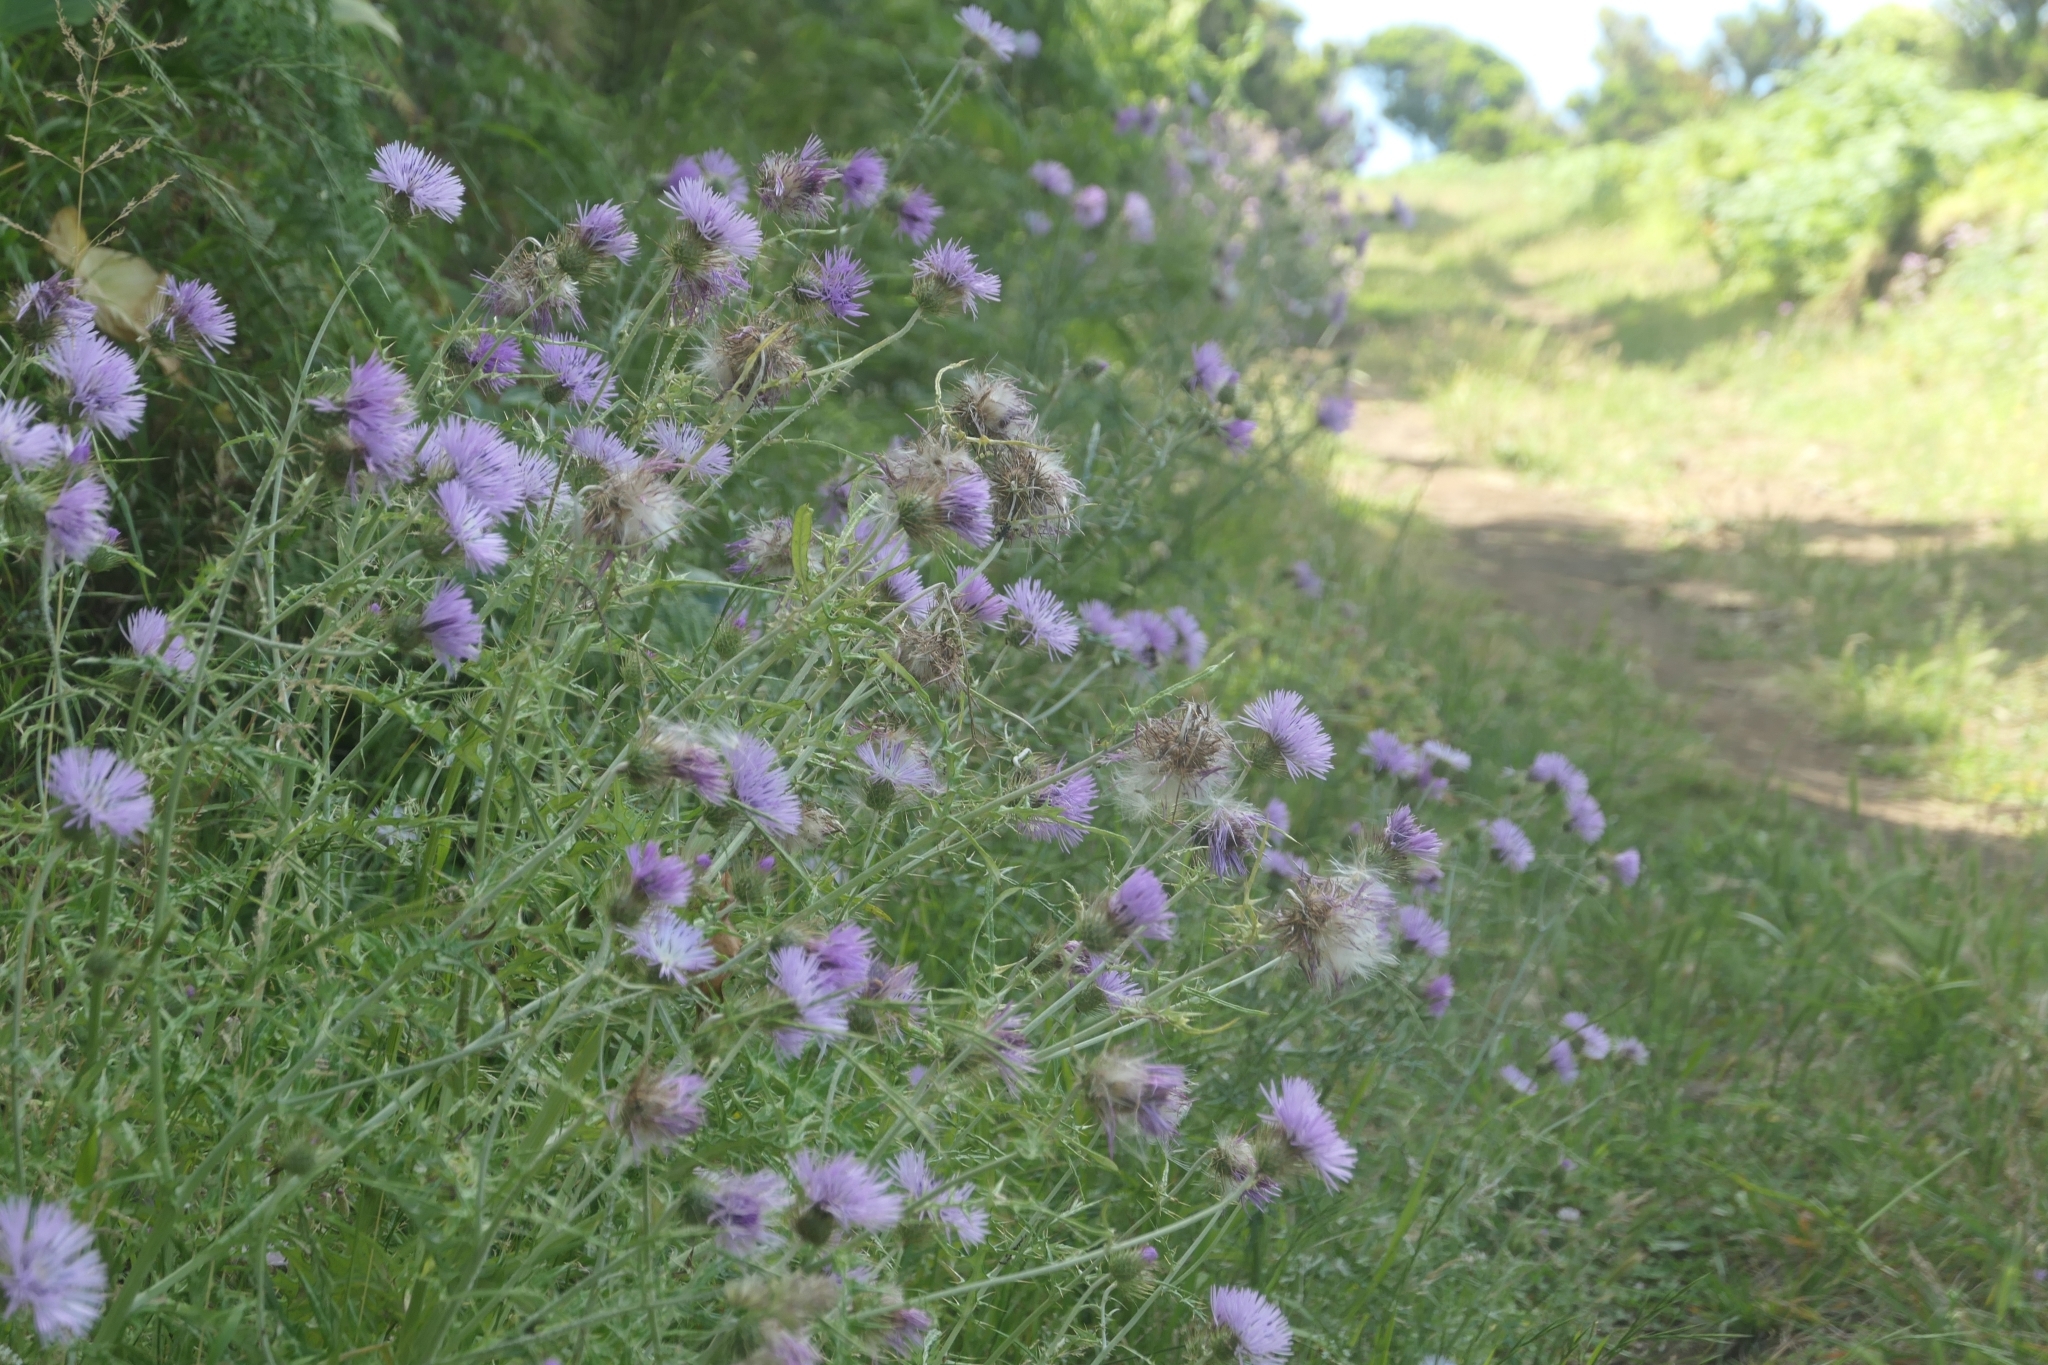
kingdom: Plantae
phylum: Tracheophyta
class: Magnoliopsida
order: Asterales
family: Asteraceae
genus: Galactites
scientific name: Galactites tomentosa
